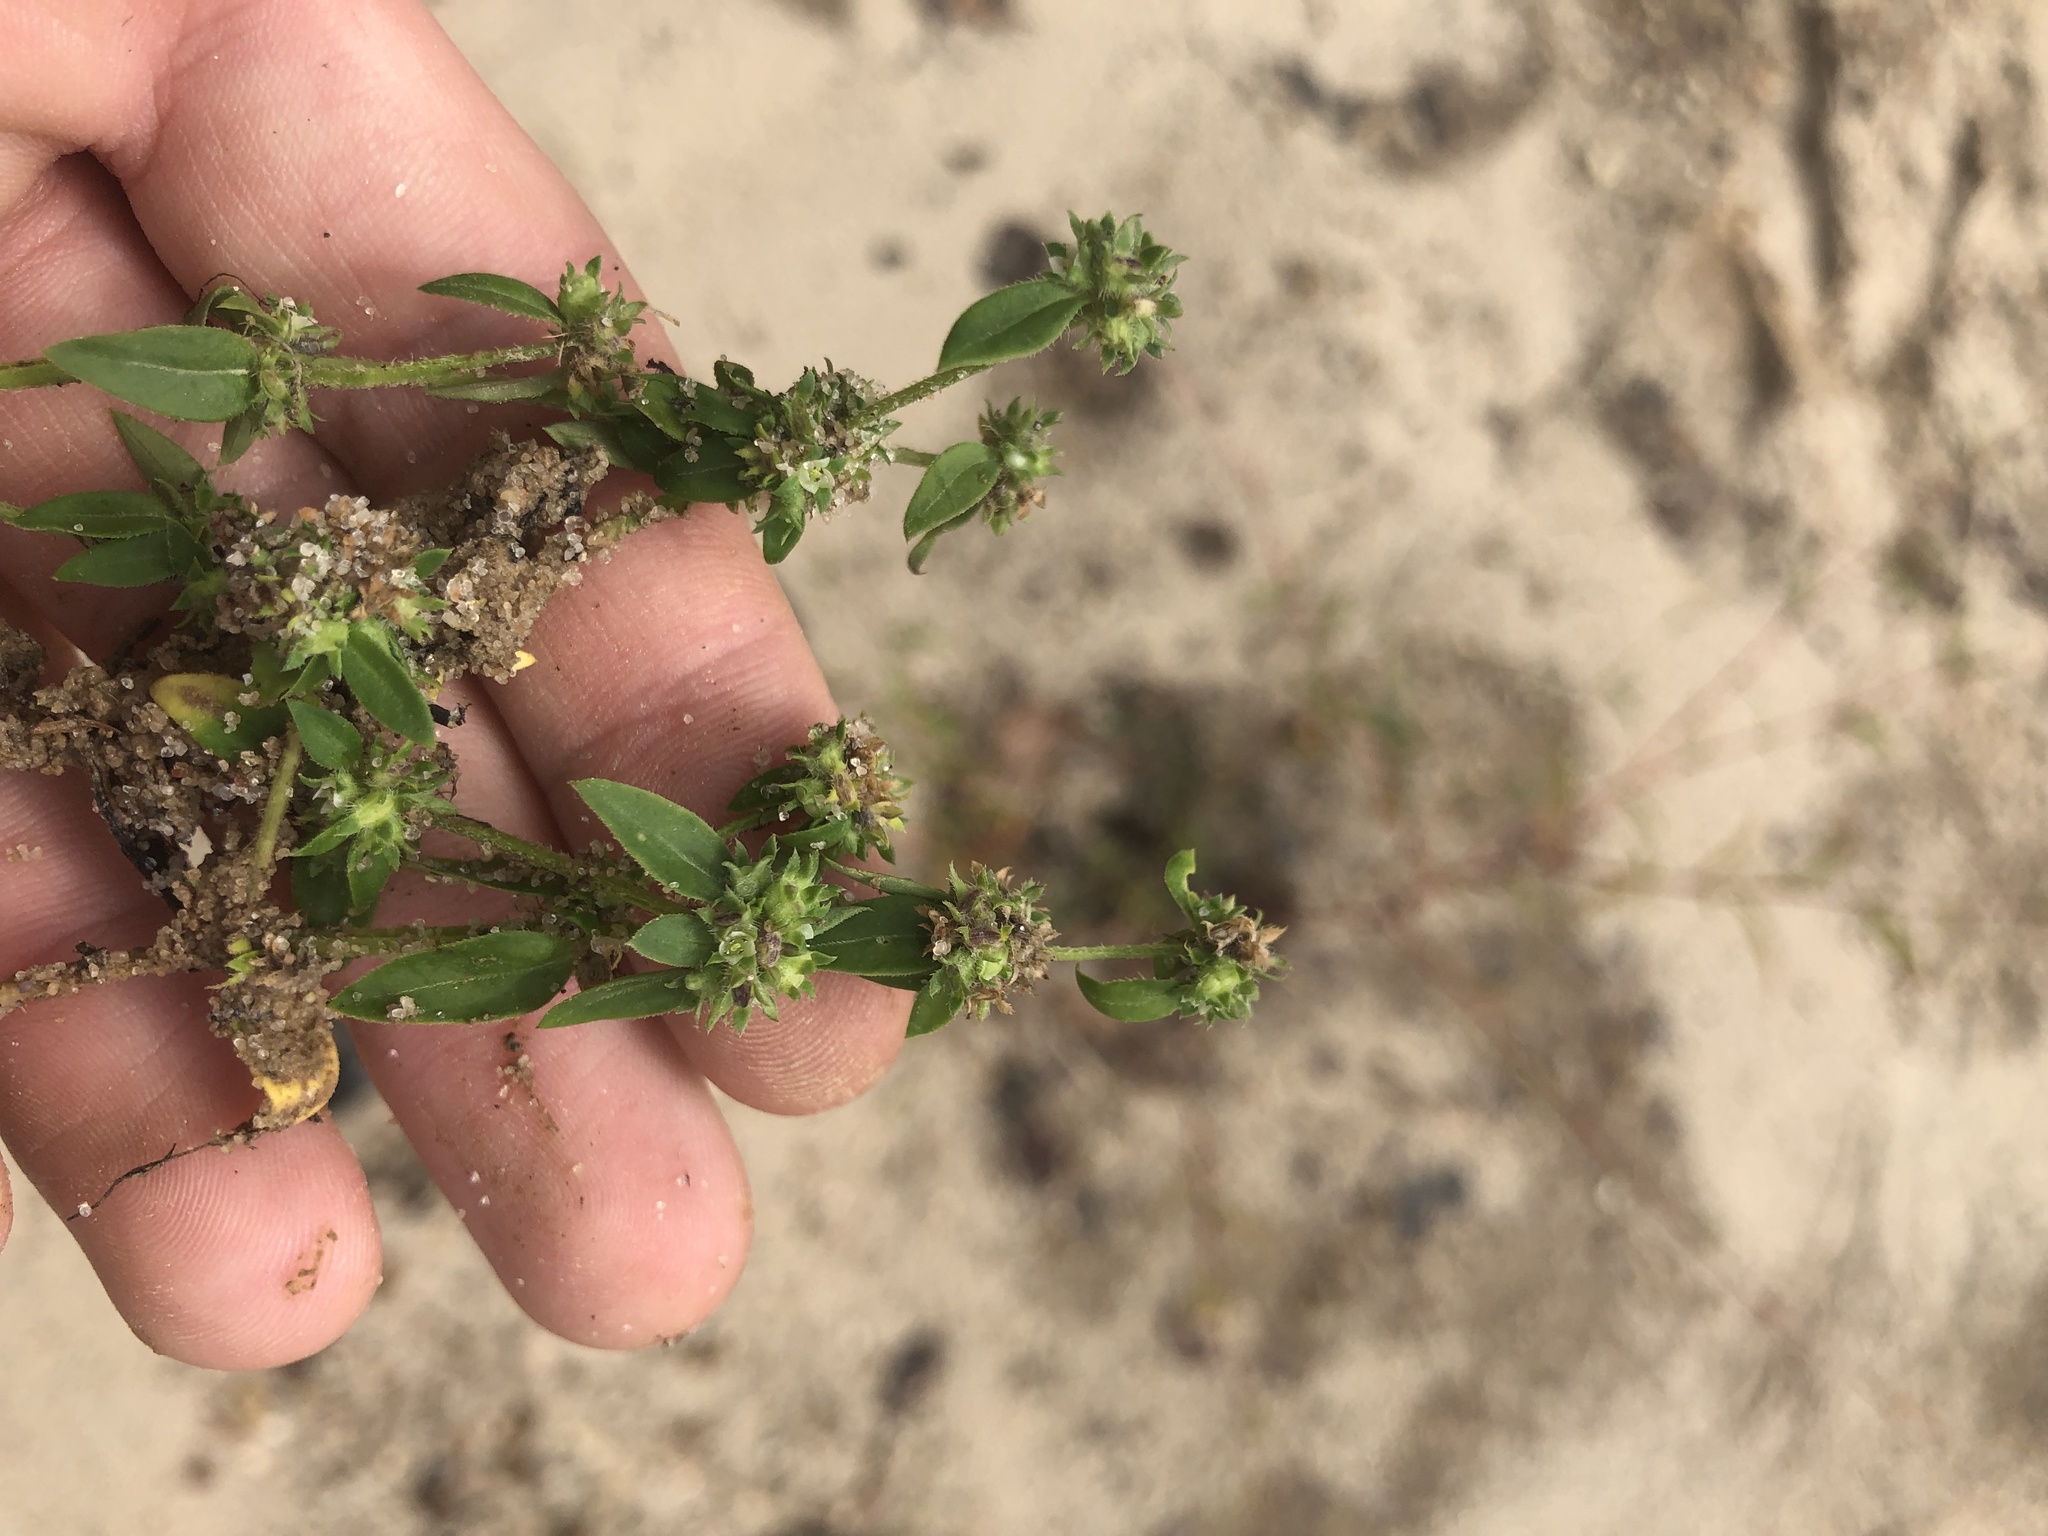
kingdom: Plantae
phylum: Tracheophyta
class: Magnoliopsida
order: Gentianales
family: Rubiaceae
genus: Edrastima
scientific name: Edrastima uniflora
